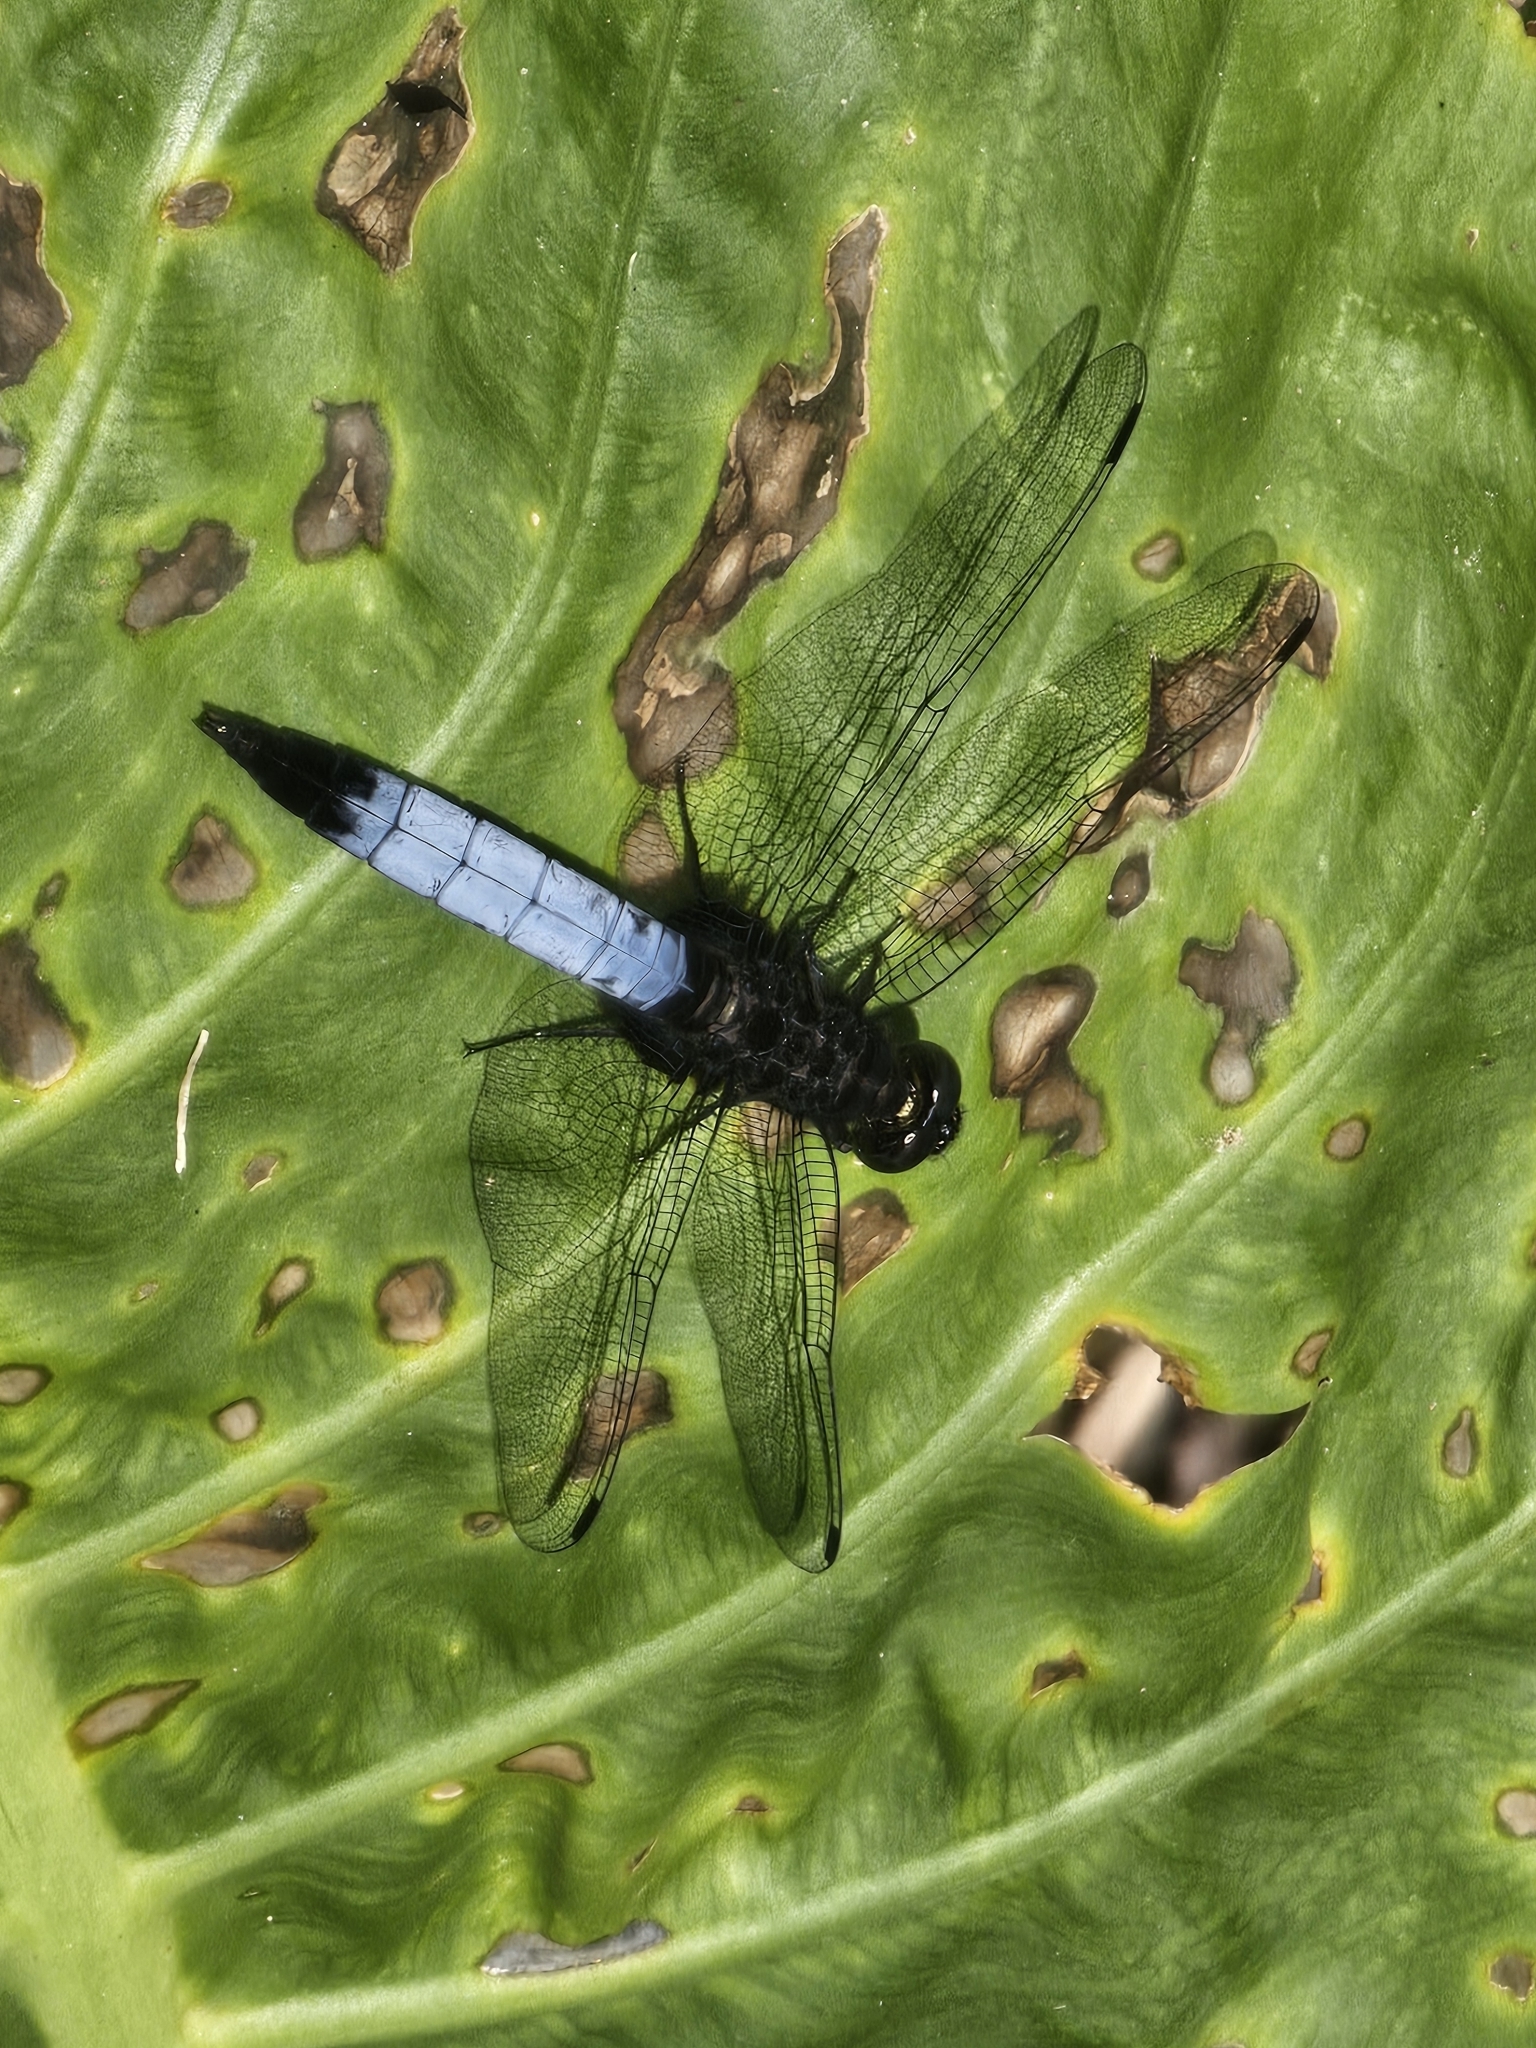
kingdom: Animalia
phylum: Arthropoda
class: Insecta
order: Odonata
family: Libellulidae
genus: Orthetrum
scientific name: Orthetrum triangulare
